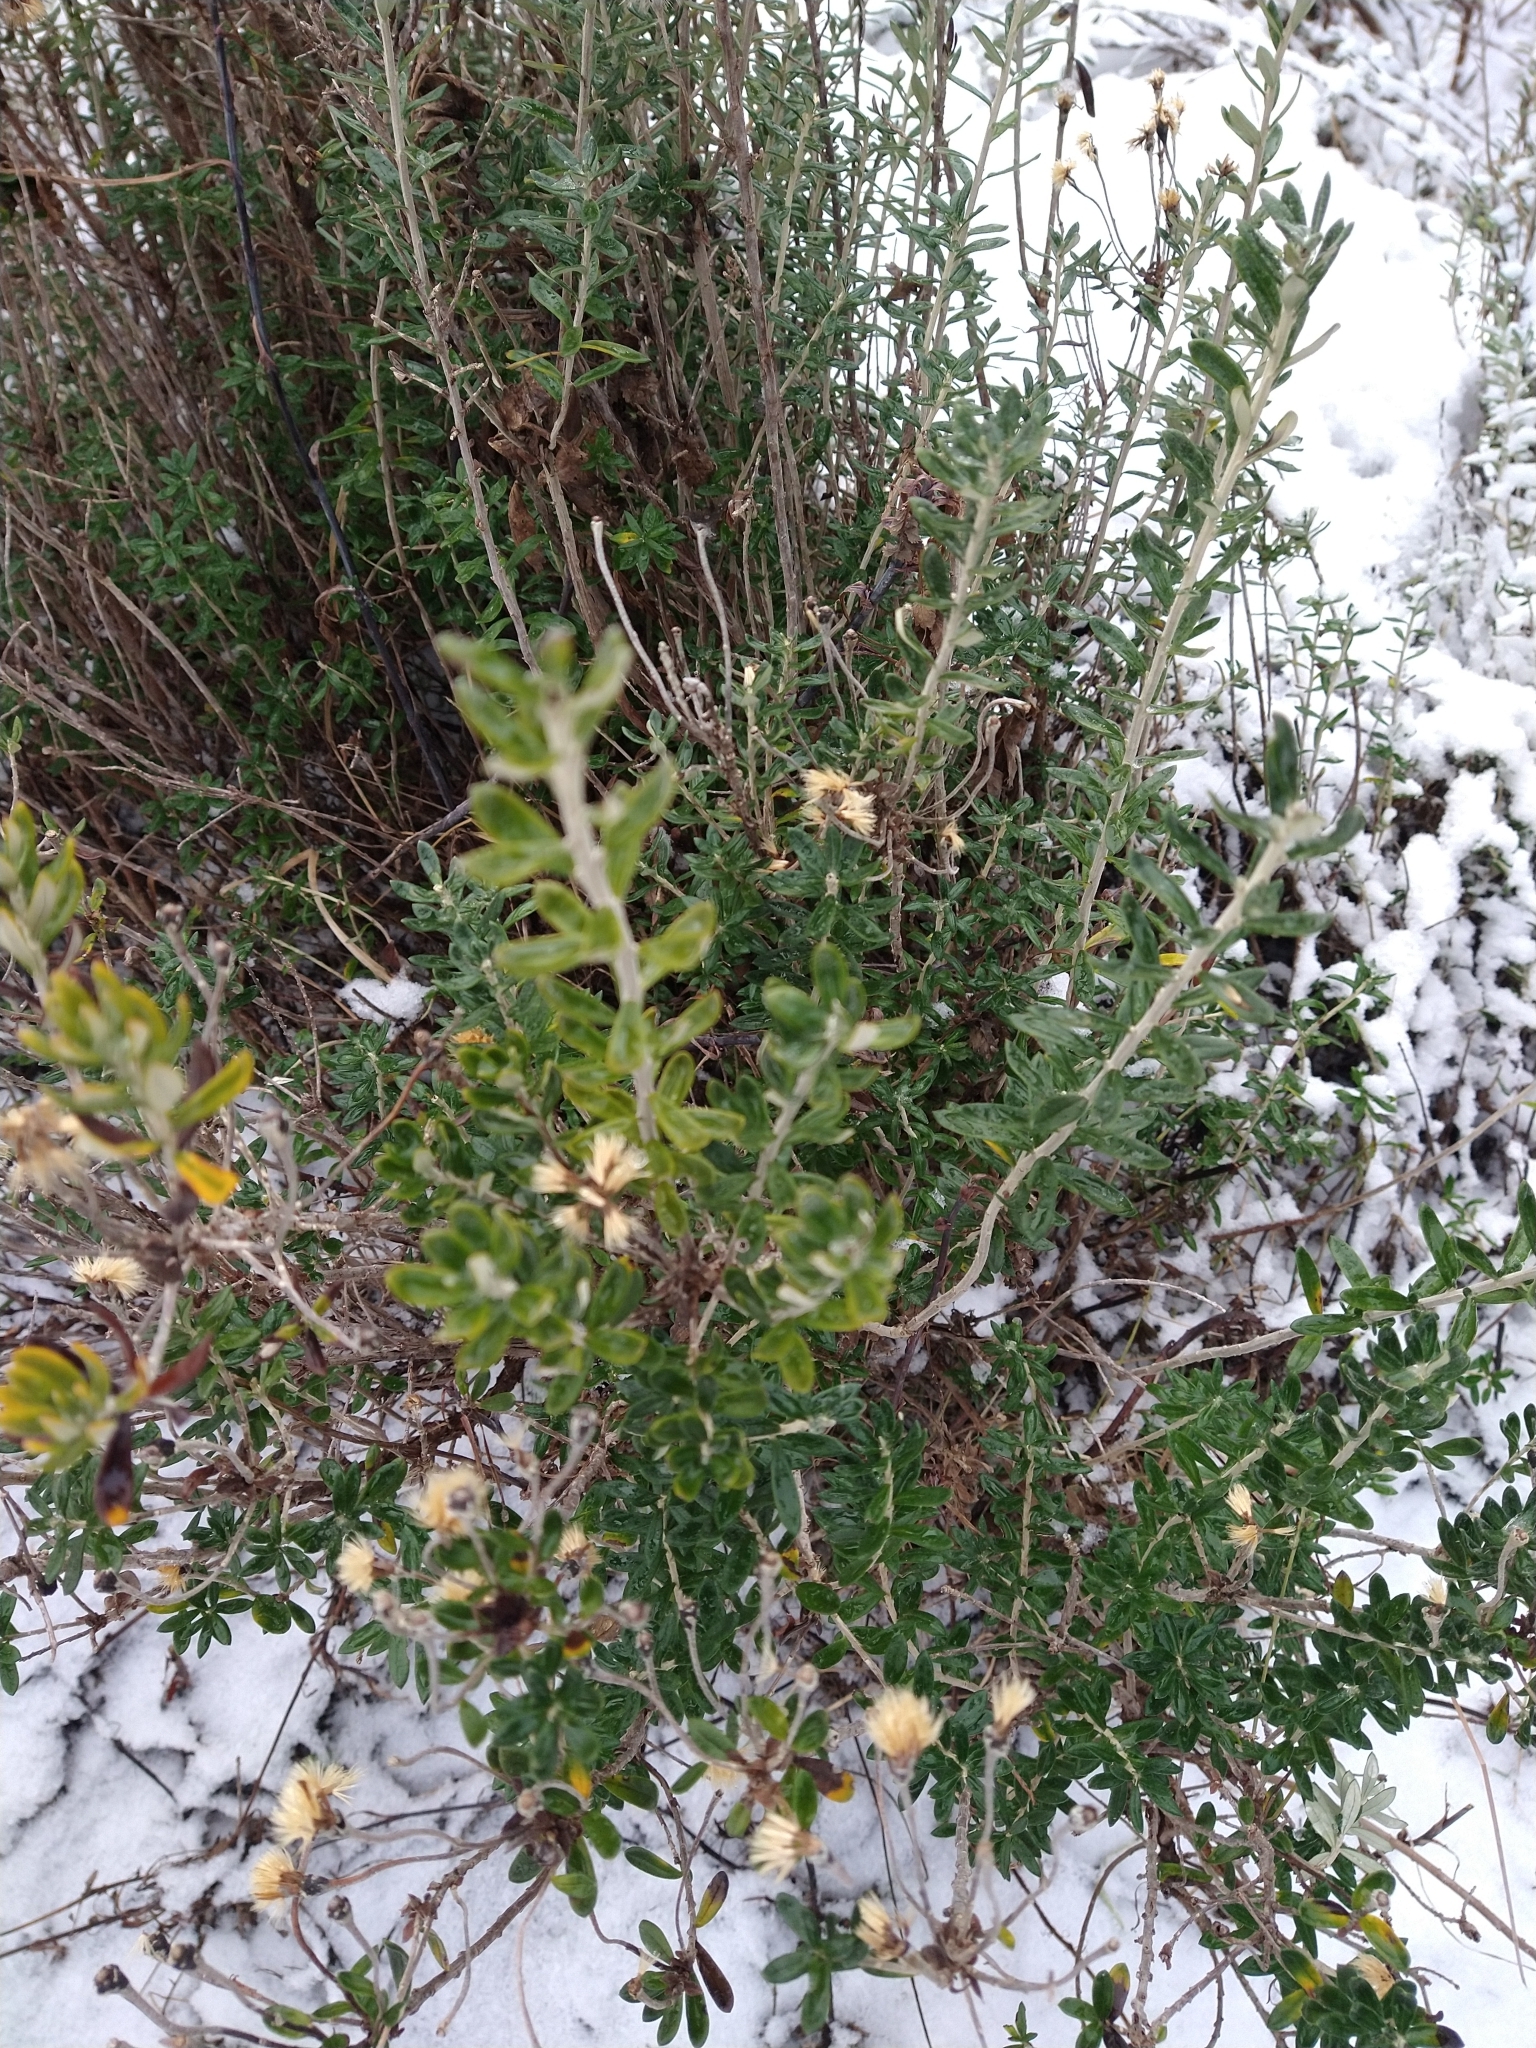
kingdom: Plantae
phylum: Tracheophyta
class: Magnoliopsida
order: Asterales
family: Asteraceae
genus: Chiliotrichum
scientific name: Chiliotrichum diffusum
